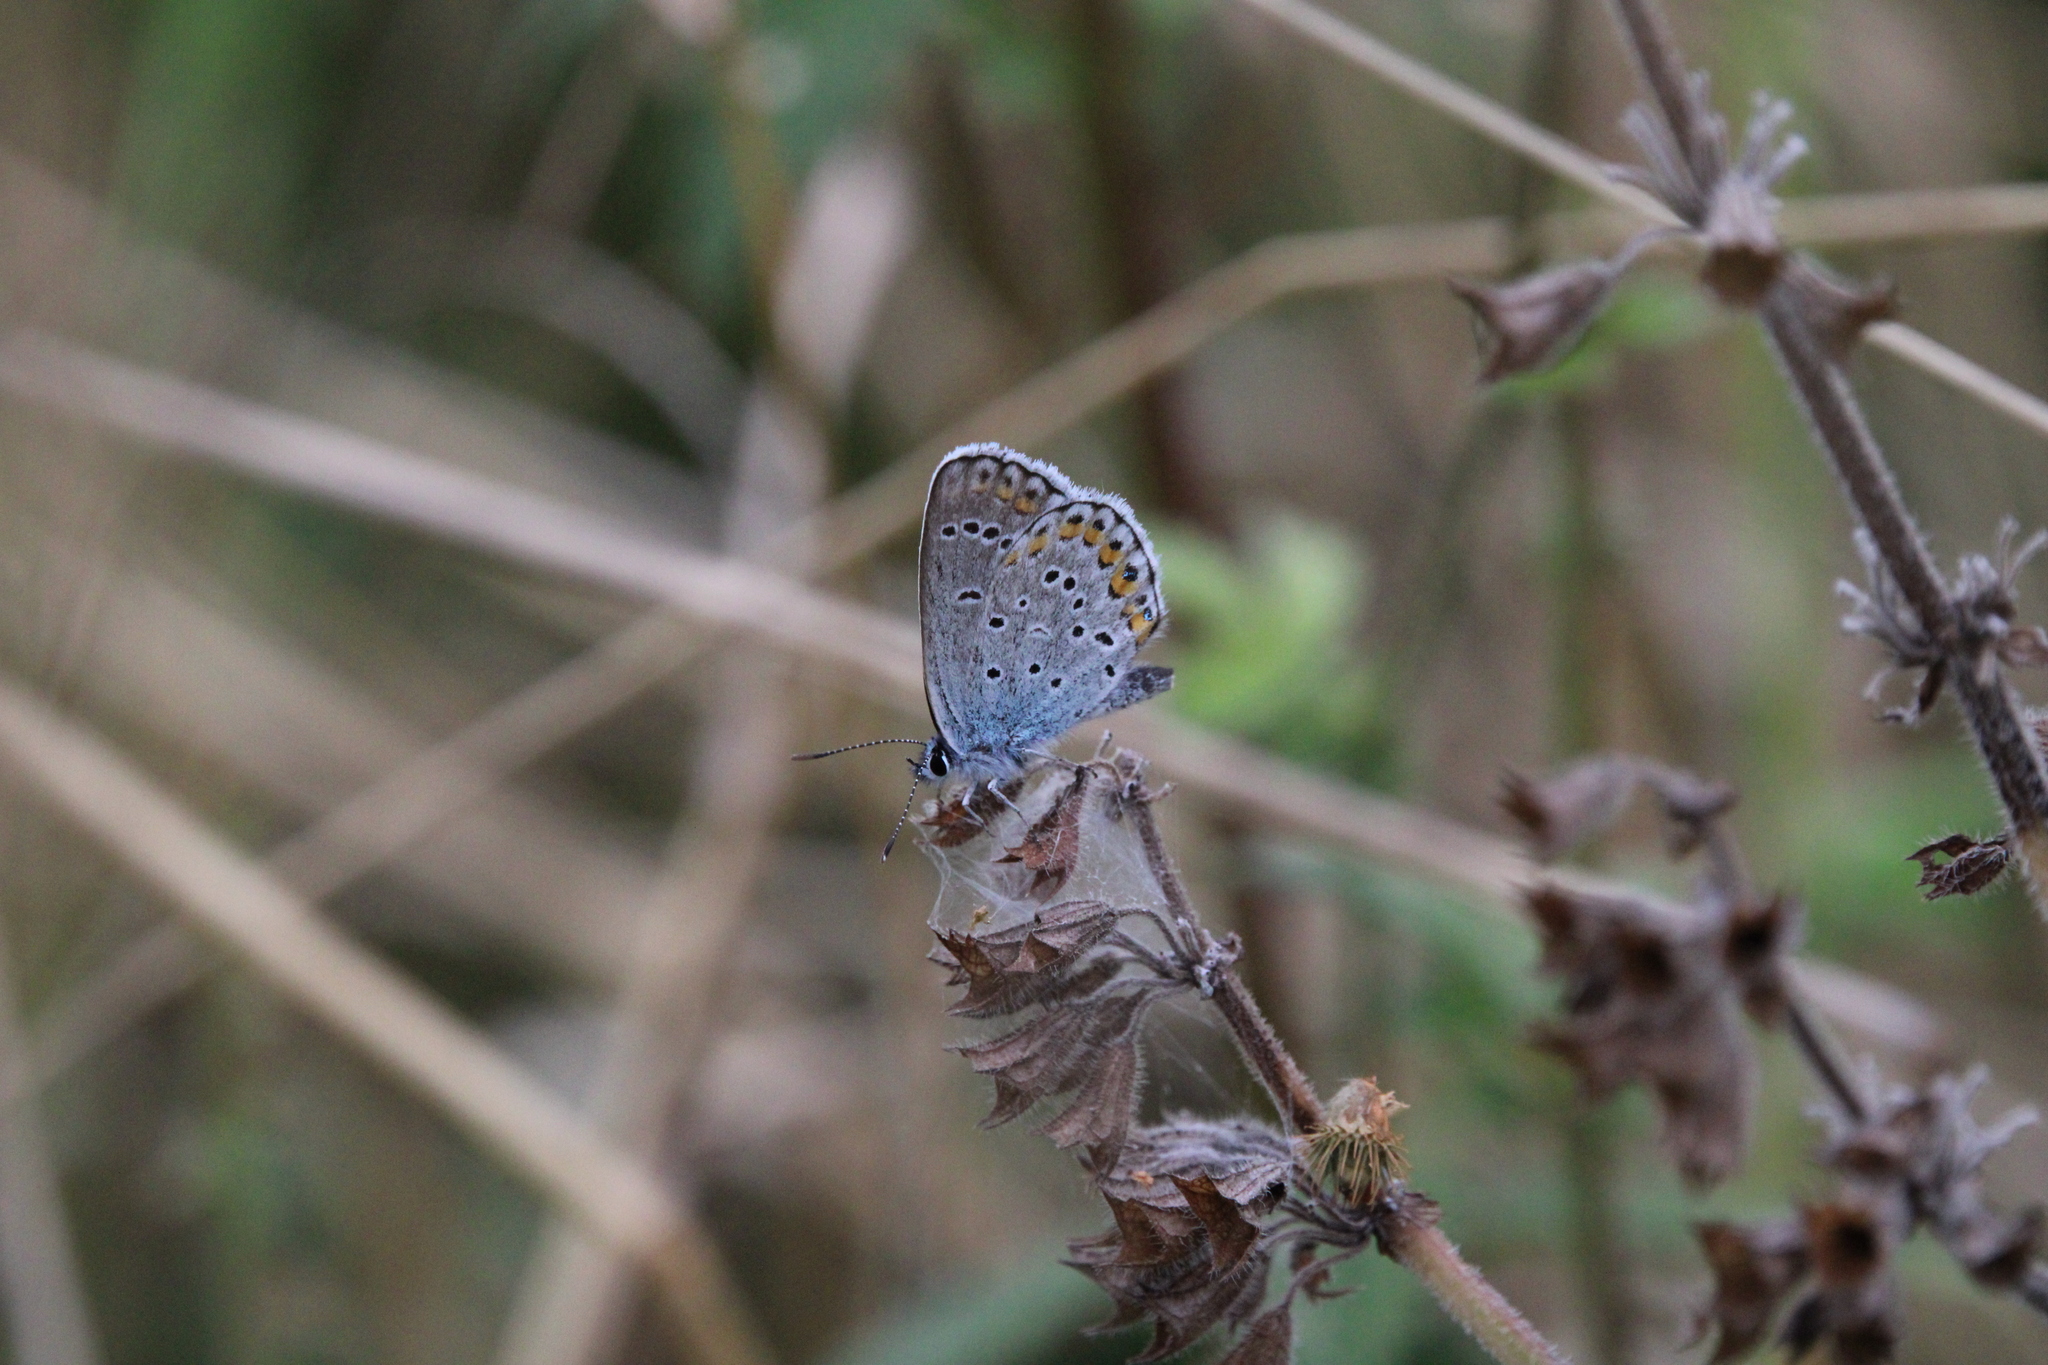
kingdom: Animalia
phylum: Arthropoda
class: Insecta
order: Lepidoptera
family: Lycaenidae
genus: Plebejus
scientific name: Plebejus argyrognomon
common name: Reverdin's blue
